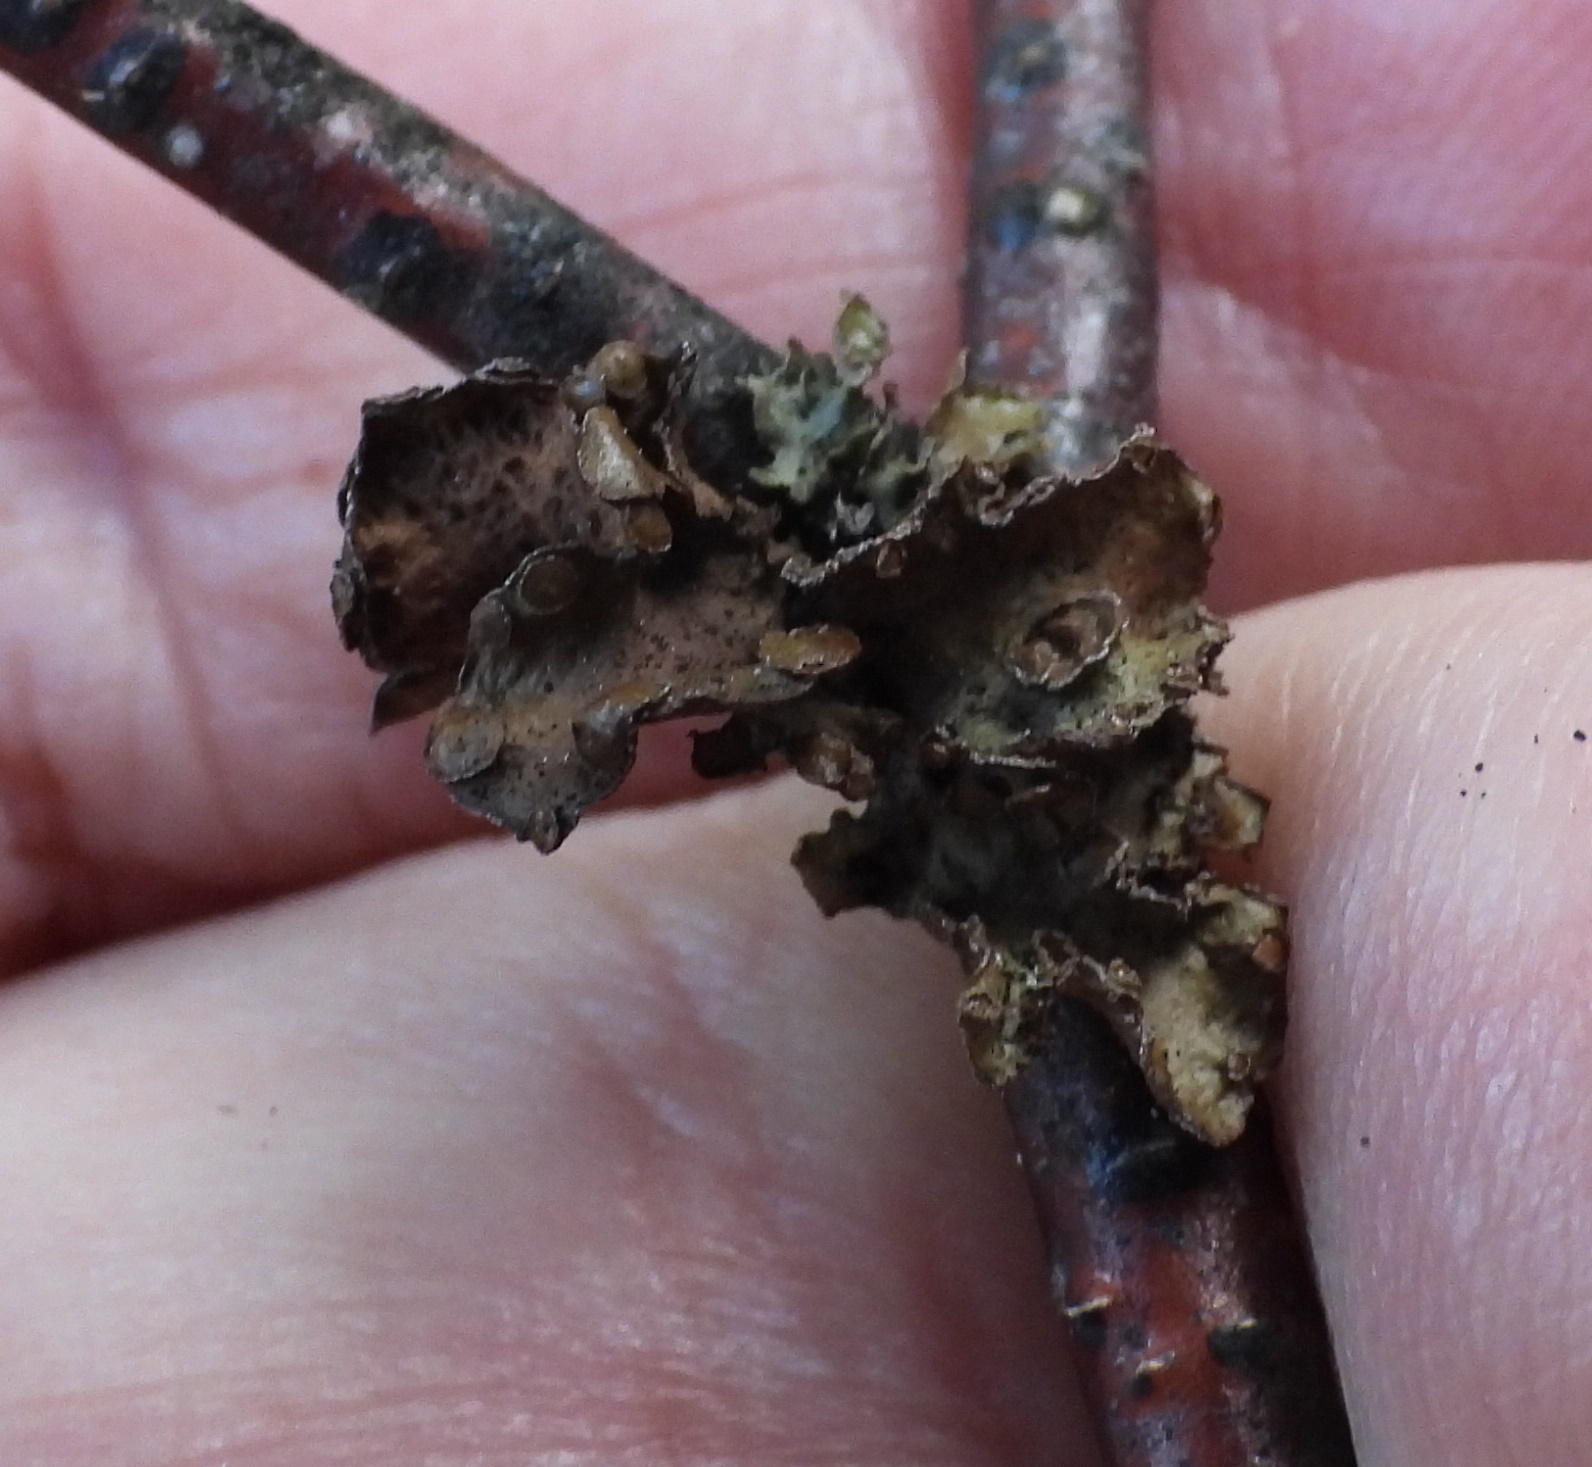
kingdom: Fungi
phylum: Ascomycota
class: Lecanoromycetes
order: Lecanorales
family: Parmeliaceae
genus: Cetraria
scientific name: Cetraria sepincola
